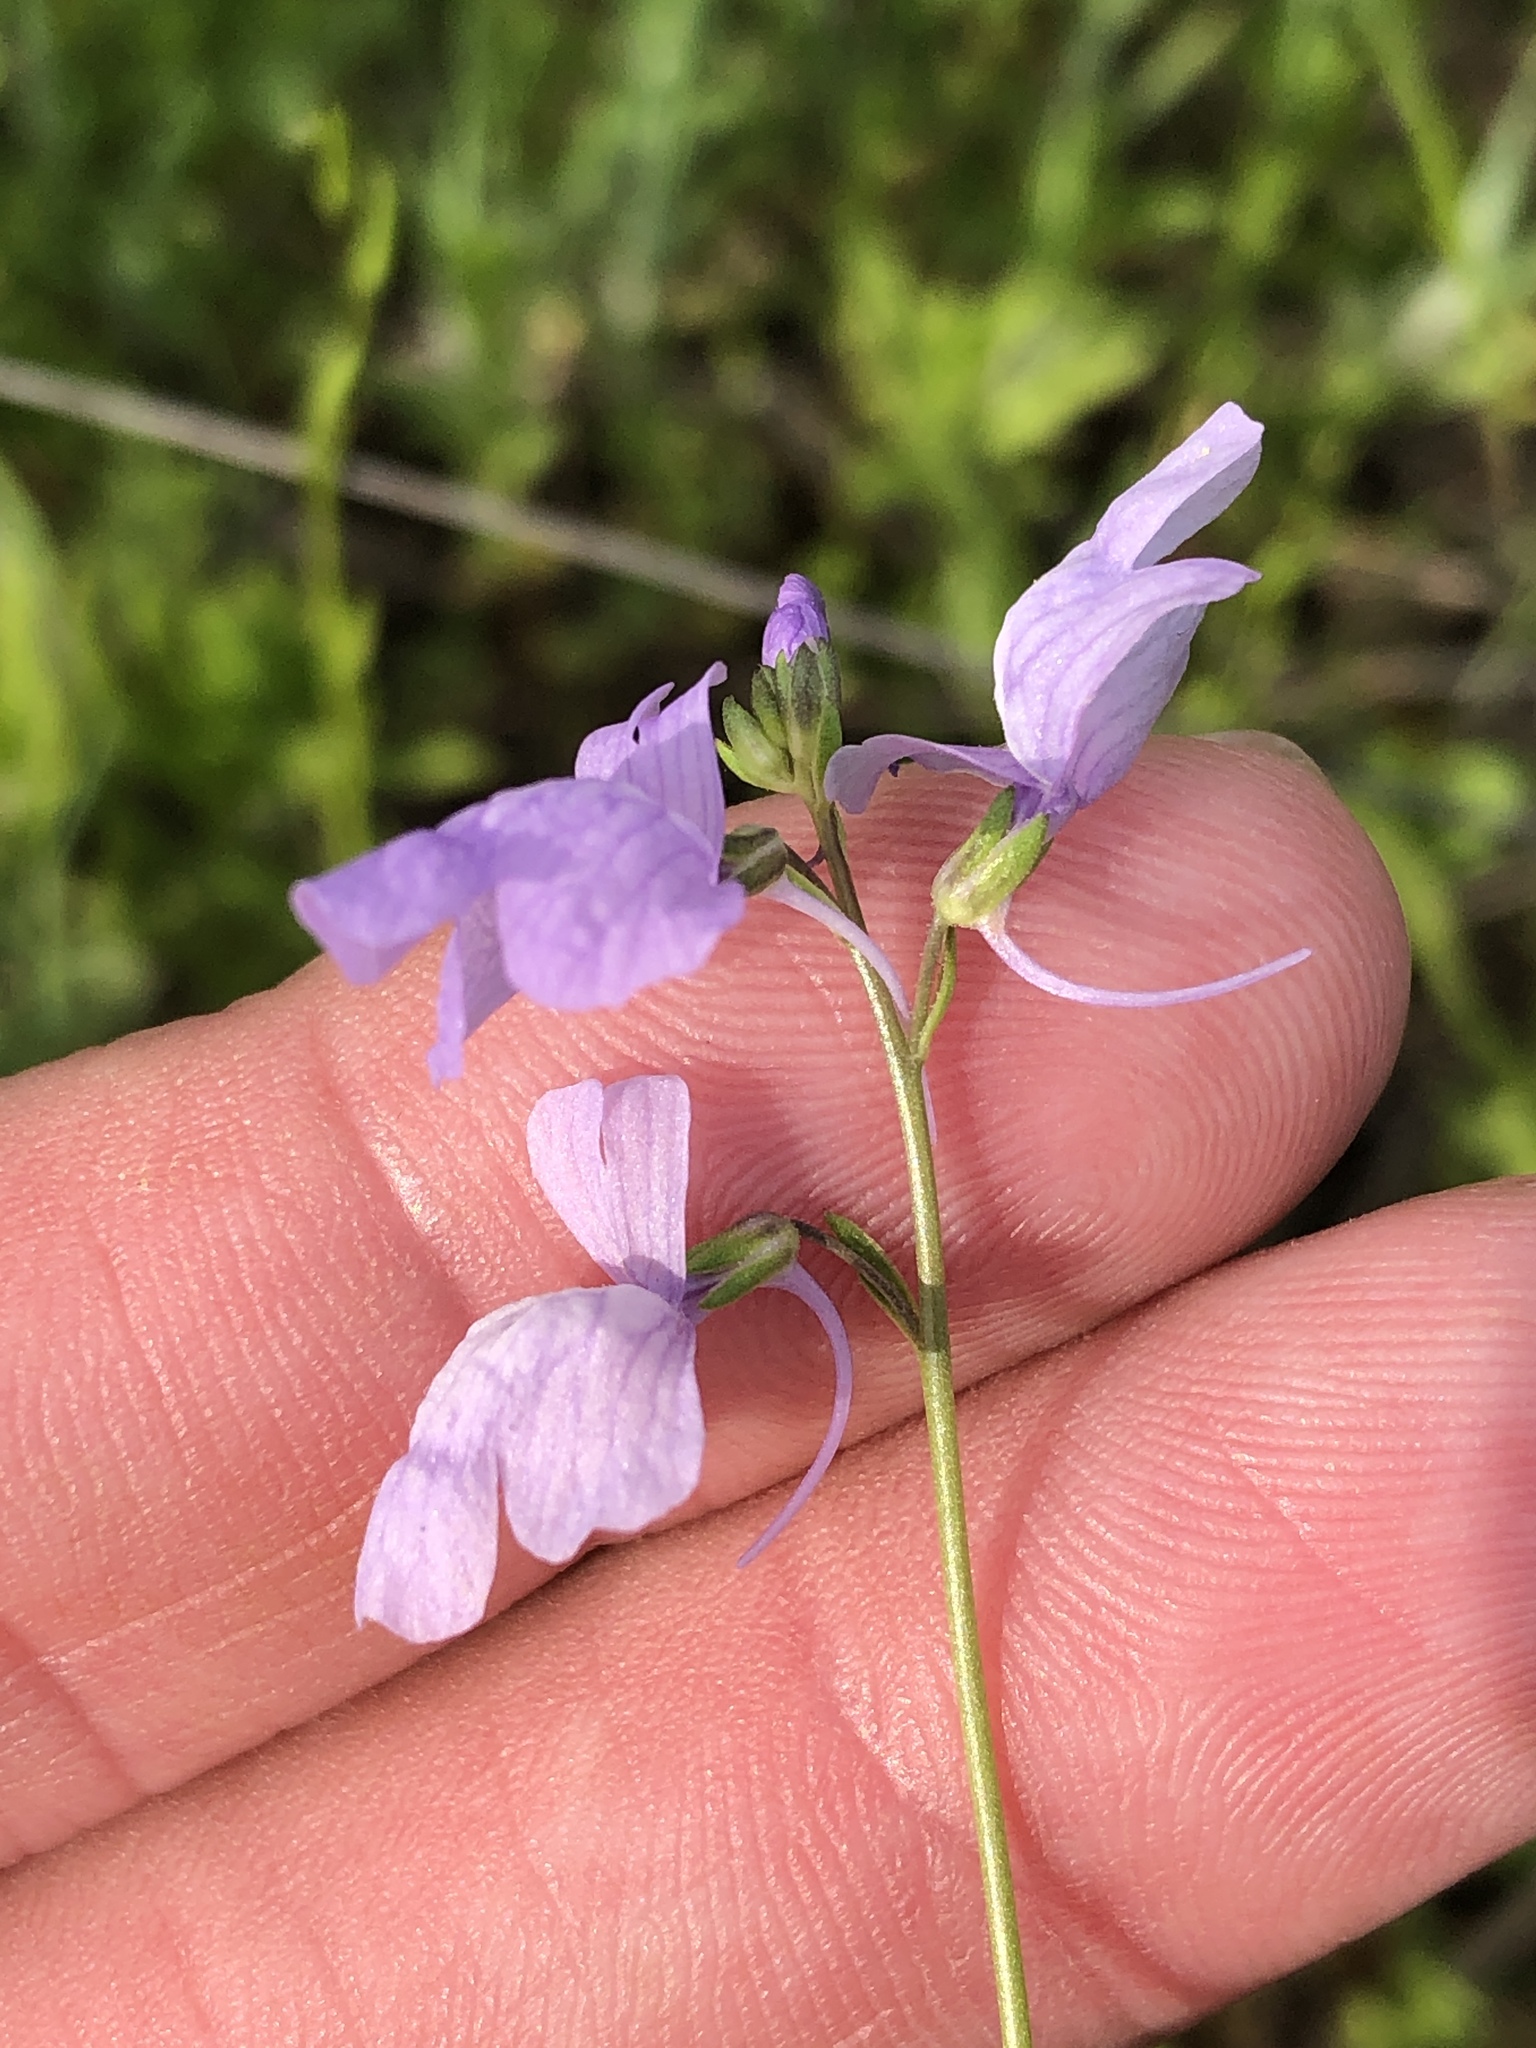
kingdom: Plantae
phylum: Tracheophyta
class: Magnoliopsida
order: Lamiales
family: Plantaginaceae
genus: Nuttallanthus
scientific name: Nuttallanthus texanus
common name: Texas toadflax
